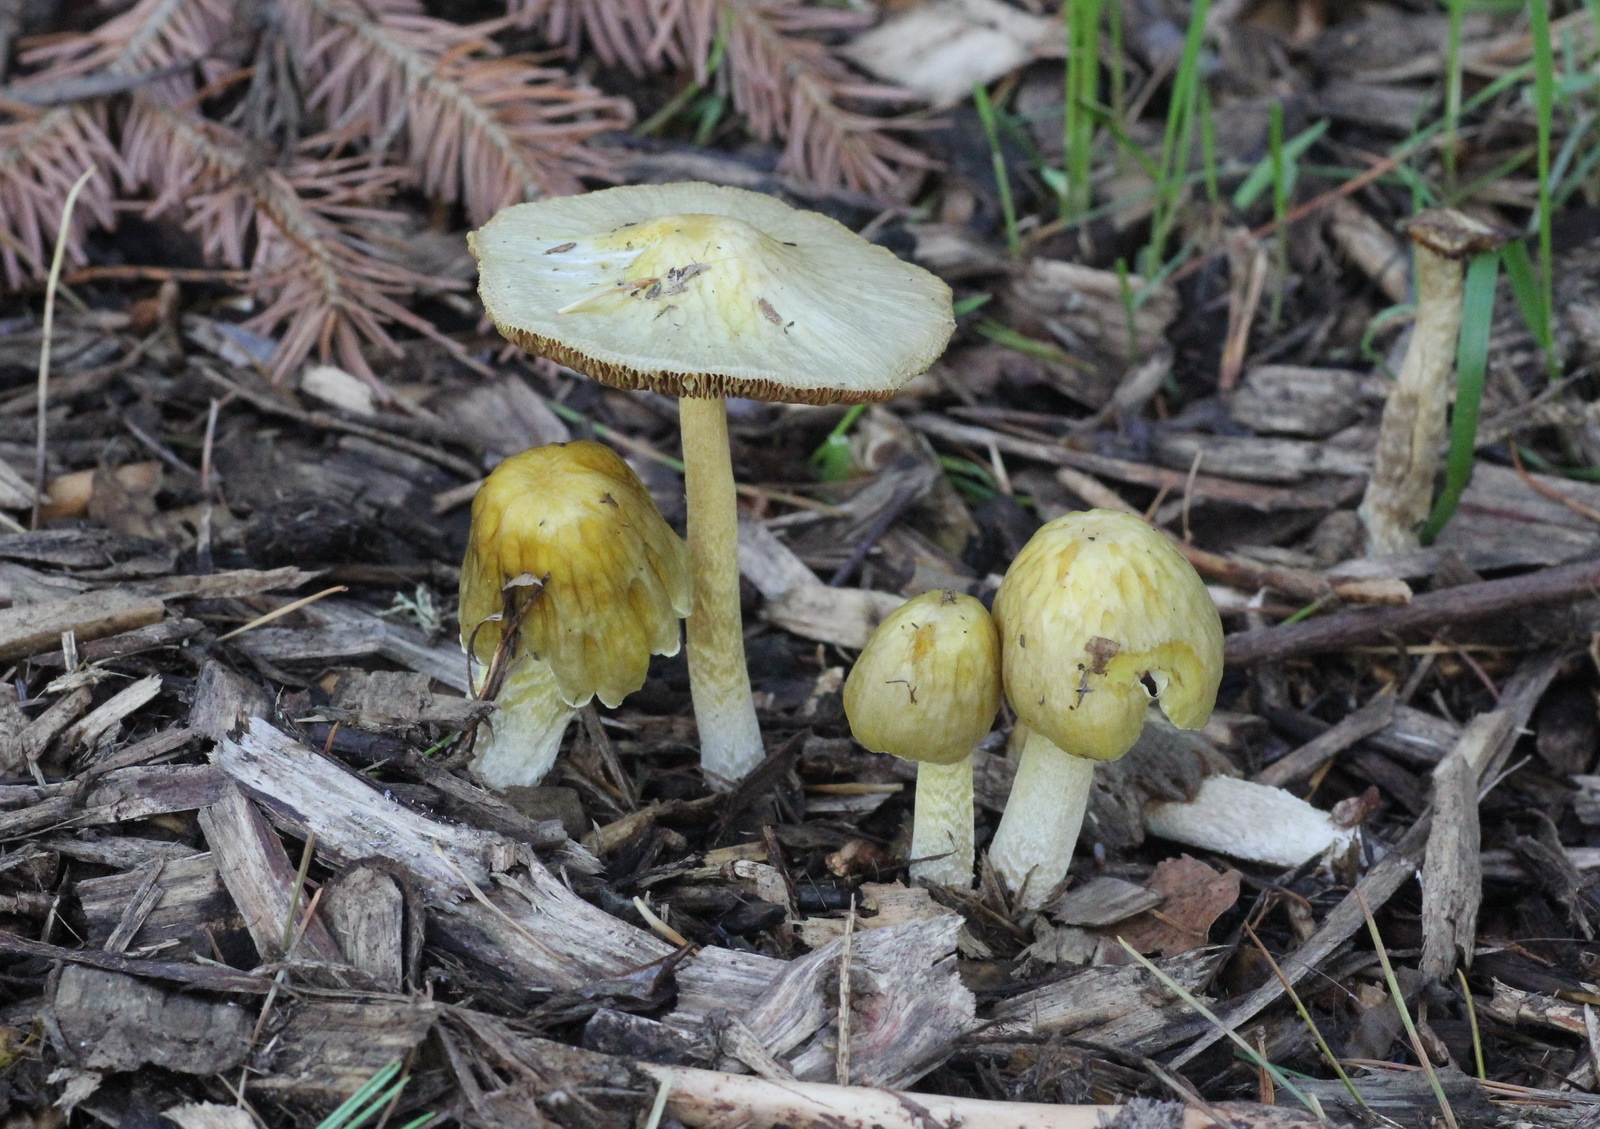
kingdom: Fungi
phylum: Basidiomycota
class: Agaricomycetes
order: Agaricales
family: Bolbitiaceae
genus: Bolbitius
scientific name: Bolbitius titubans
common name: Yellow fieldcap
